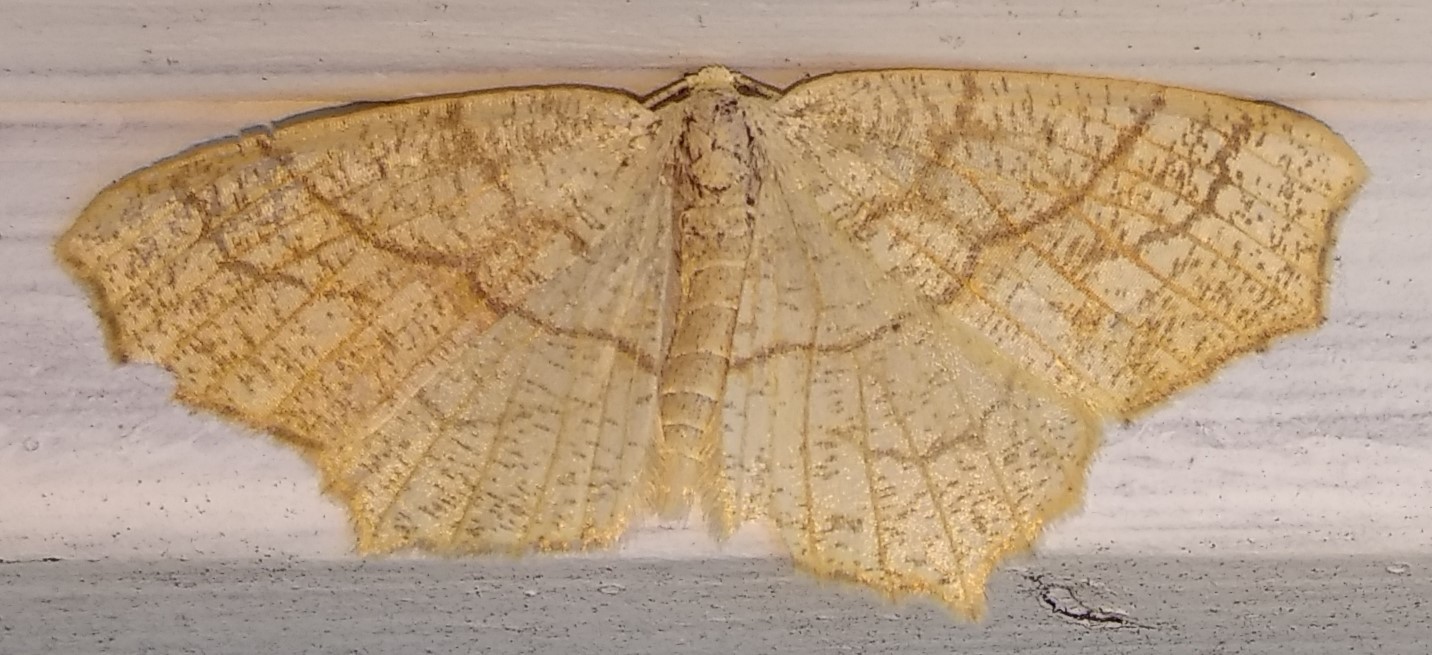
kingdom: Animalia
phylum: Arthropoda
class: Insecta
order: Lepidoptera
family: Geometridae
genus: Besma
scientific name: Besma quercivoraria
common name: Oak besma
